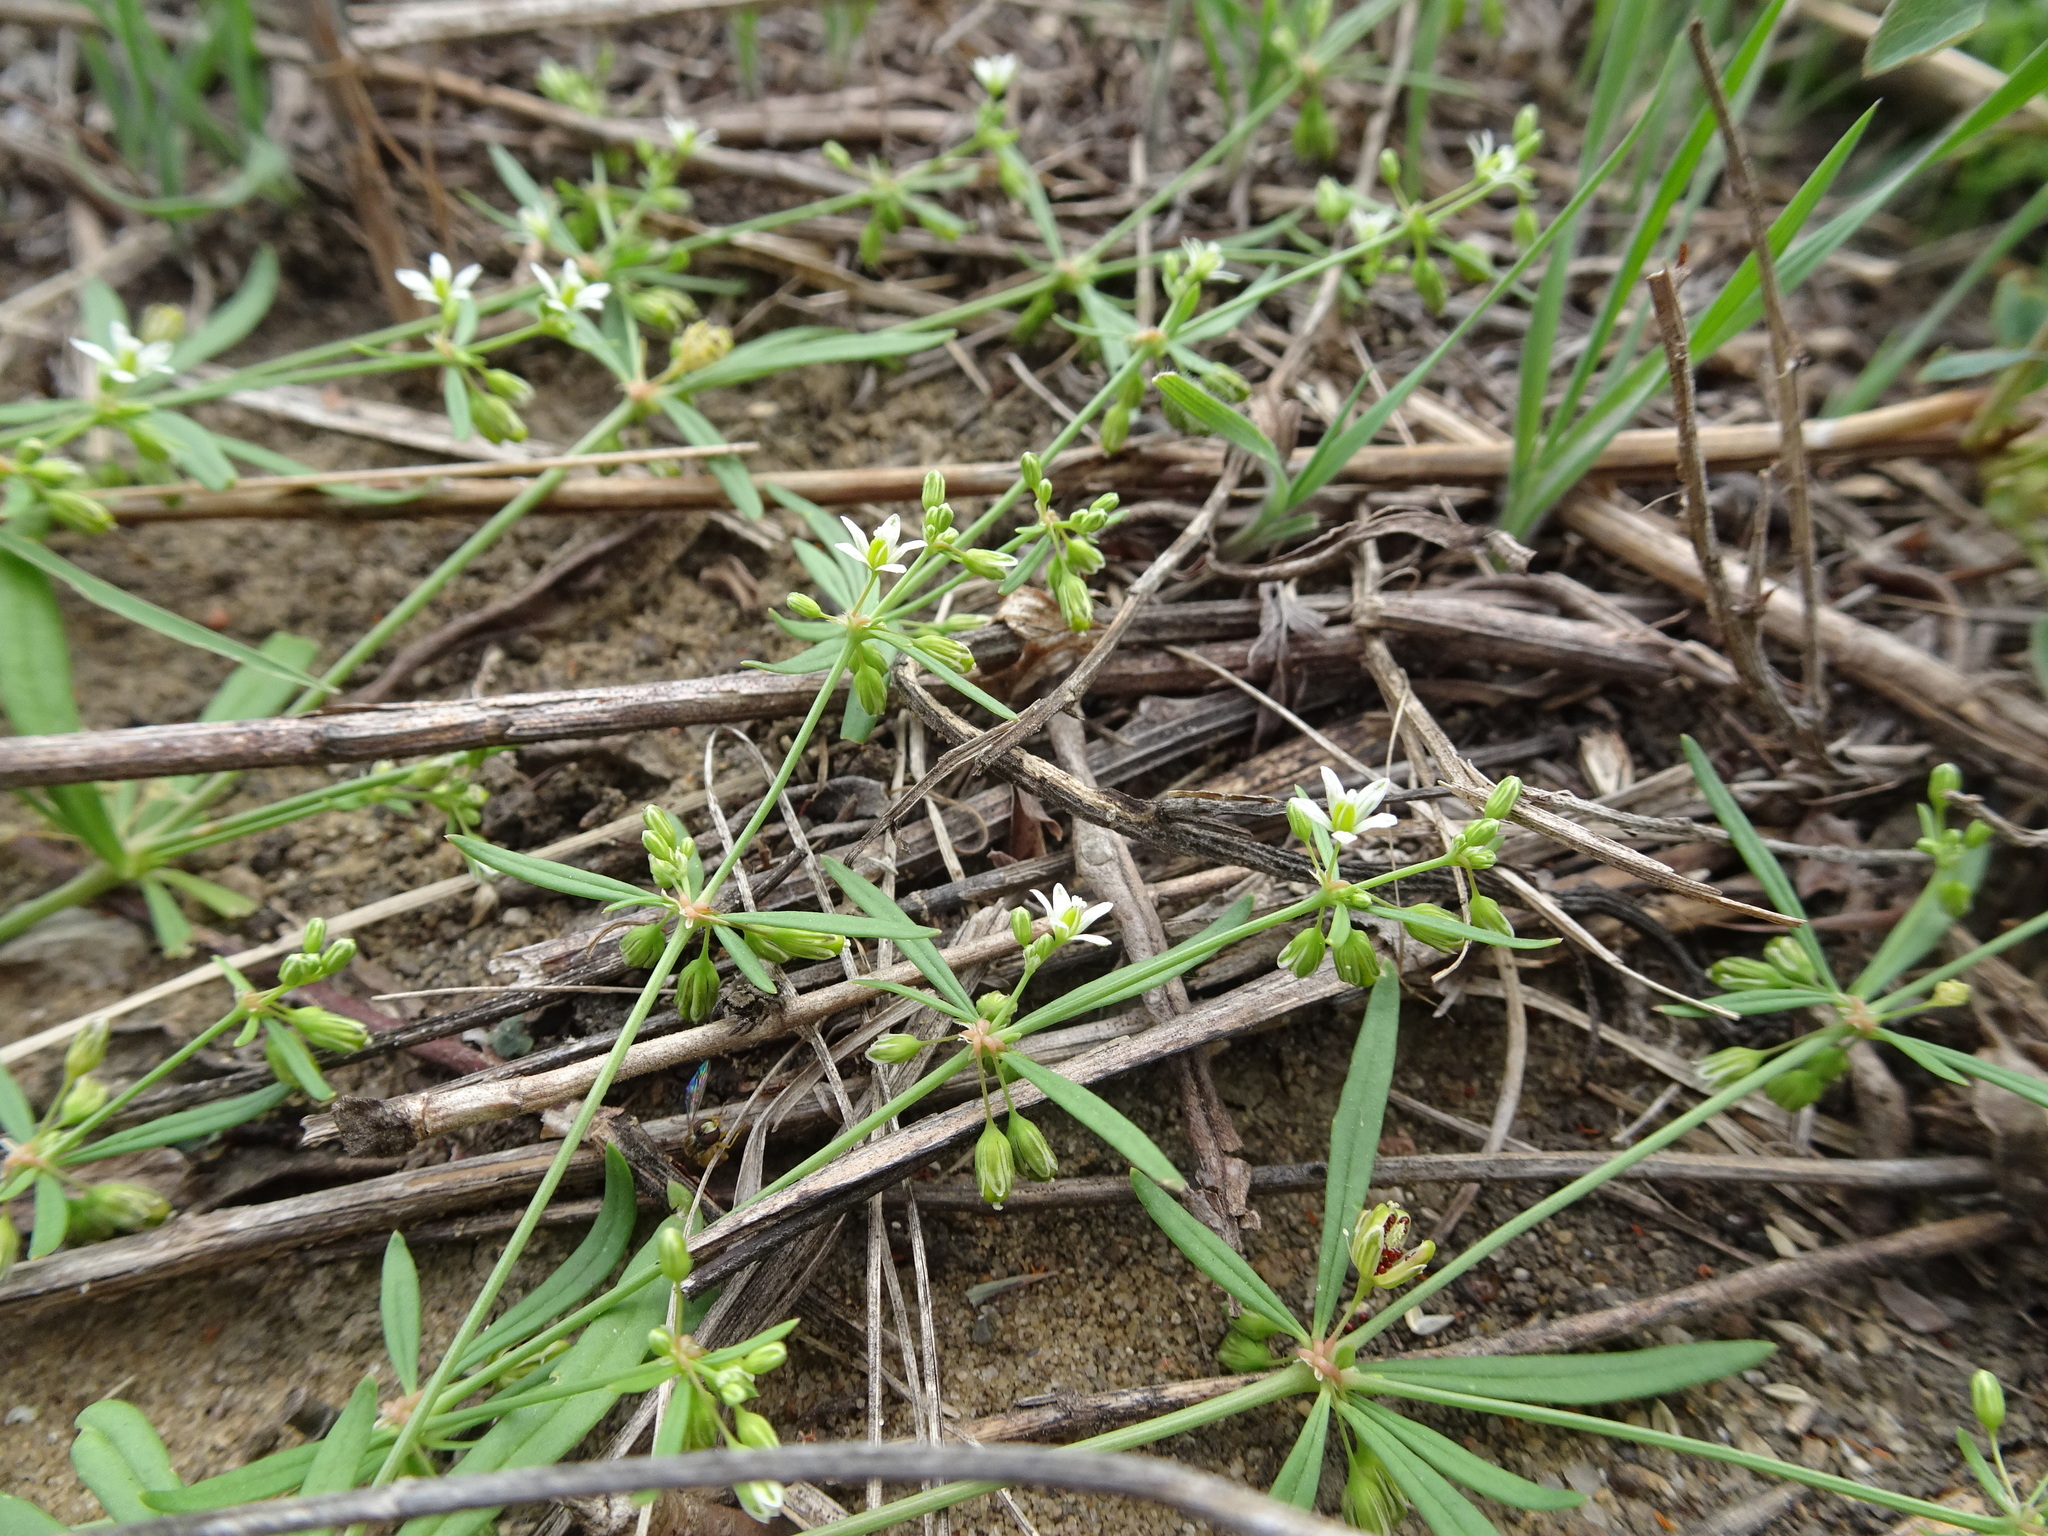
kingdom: Plantae
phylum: Tracheophyta
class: Magnoliopsida
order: Caryophyllales
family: Molluginaceae
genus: Mollugo
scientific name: Mollugo verticillata
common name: Green carpetweed
